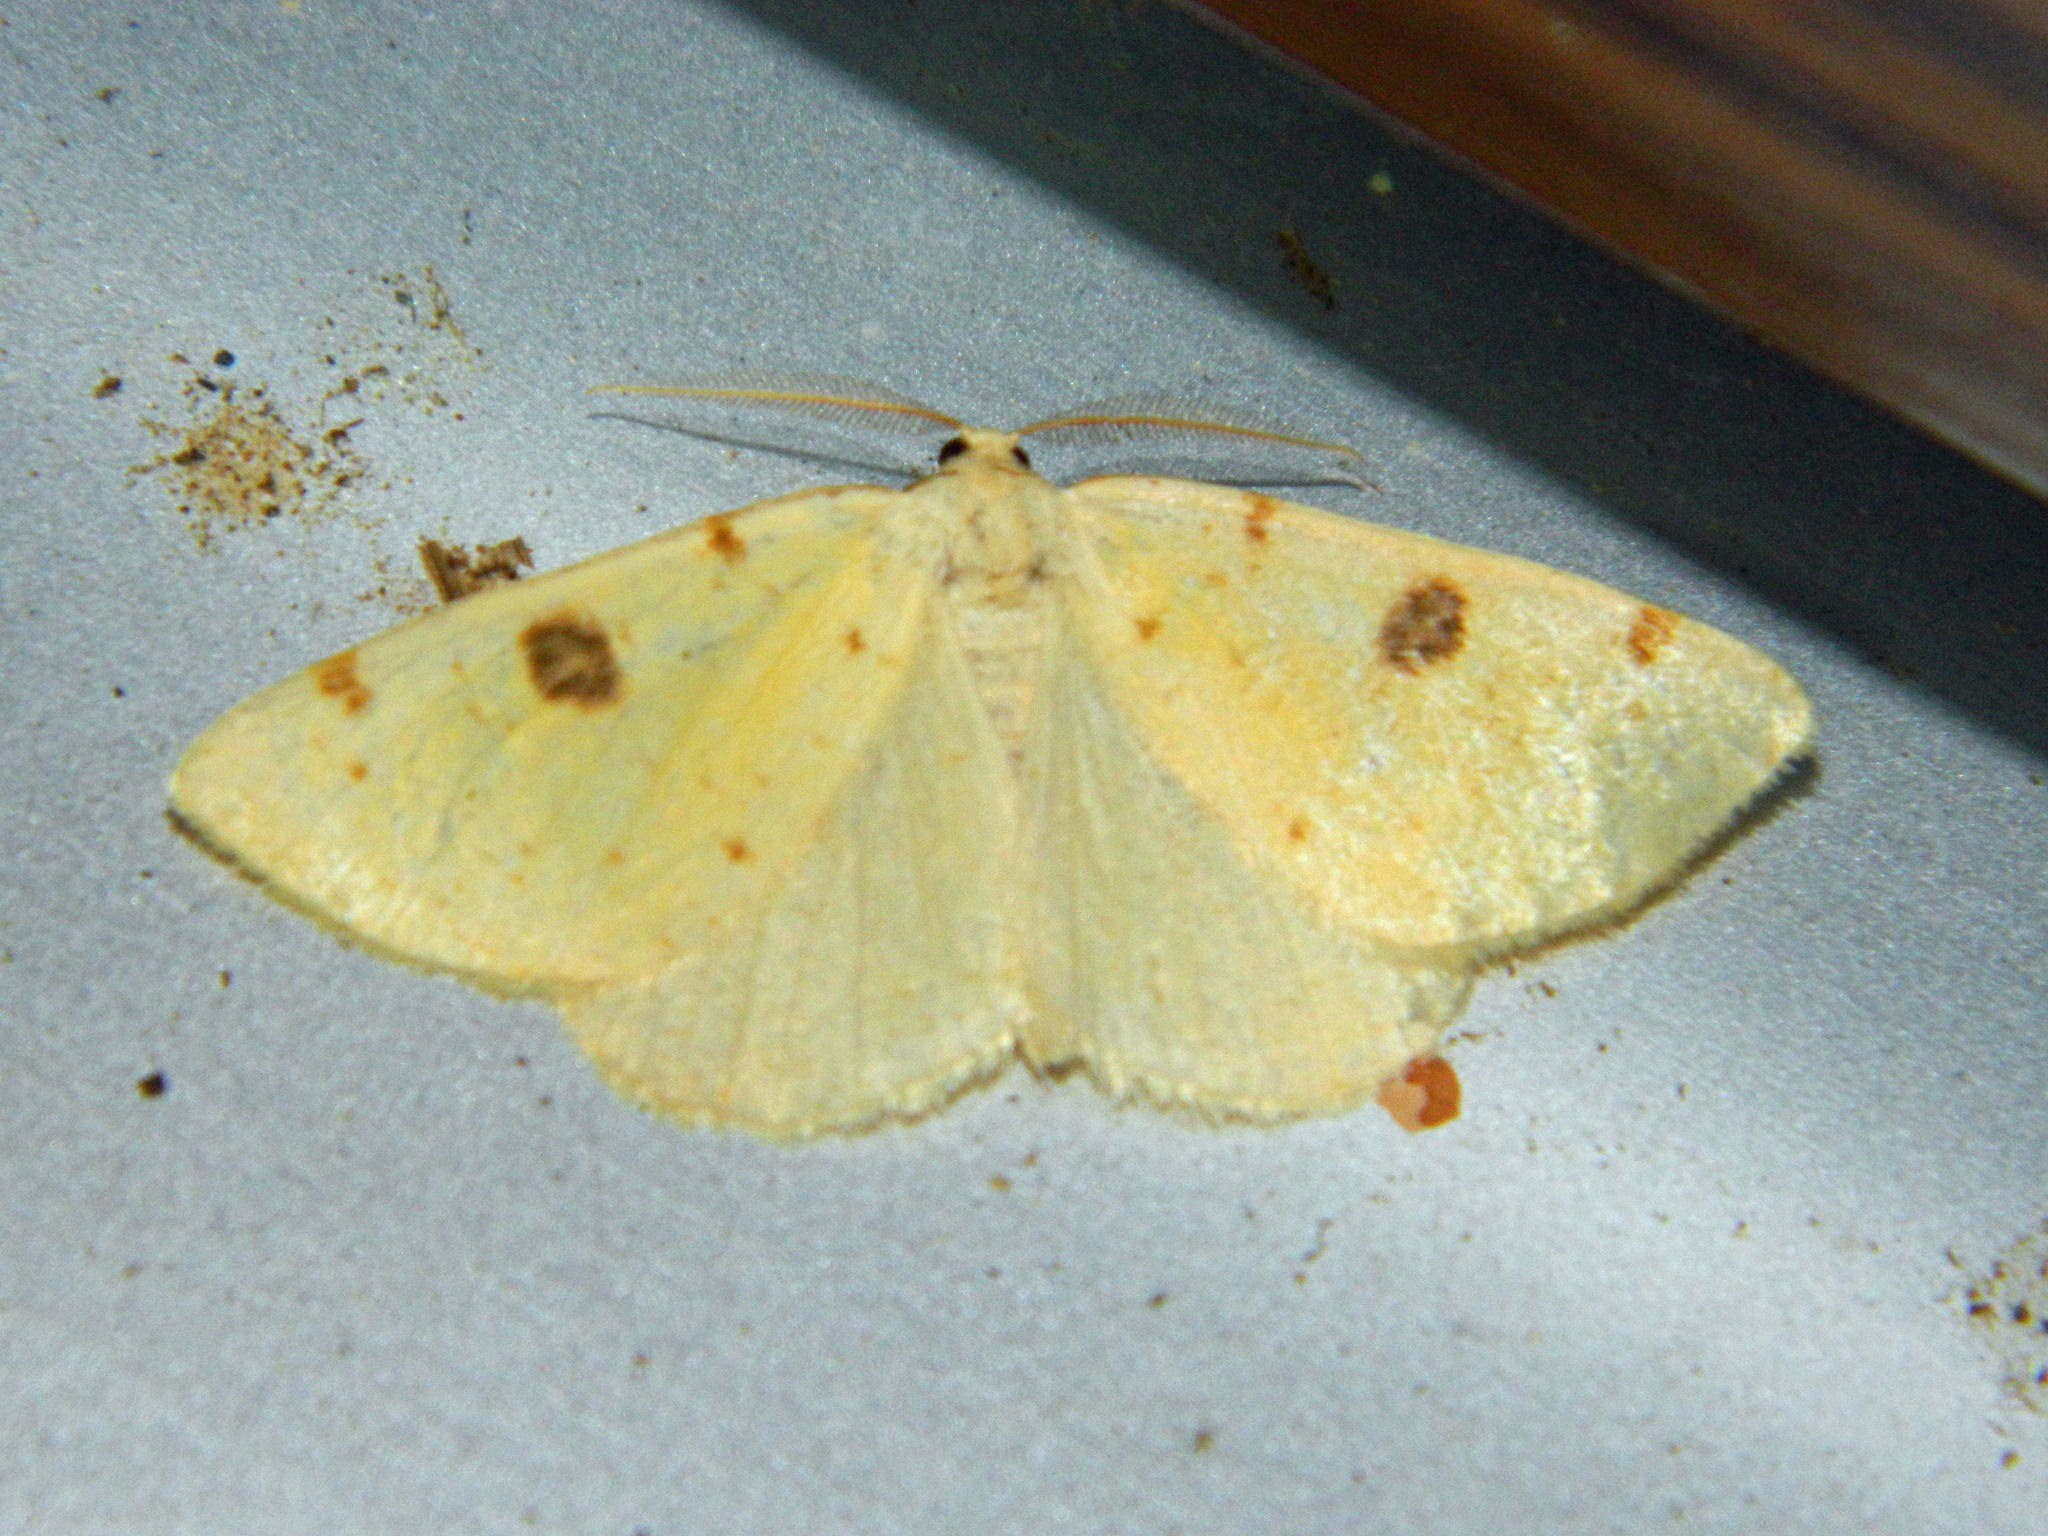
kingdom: Animalia
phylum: Arthropoda
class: Insecta
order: Lepidoptera
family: Geometridae
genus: Hesperumia
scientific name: Hesperumia sulphuraria
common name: Sulphur moth
